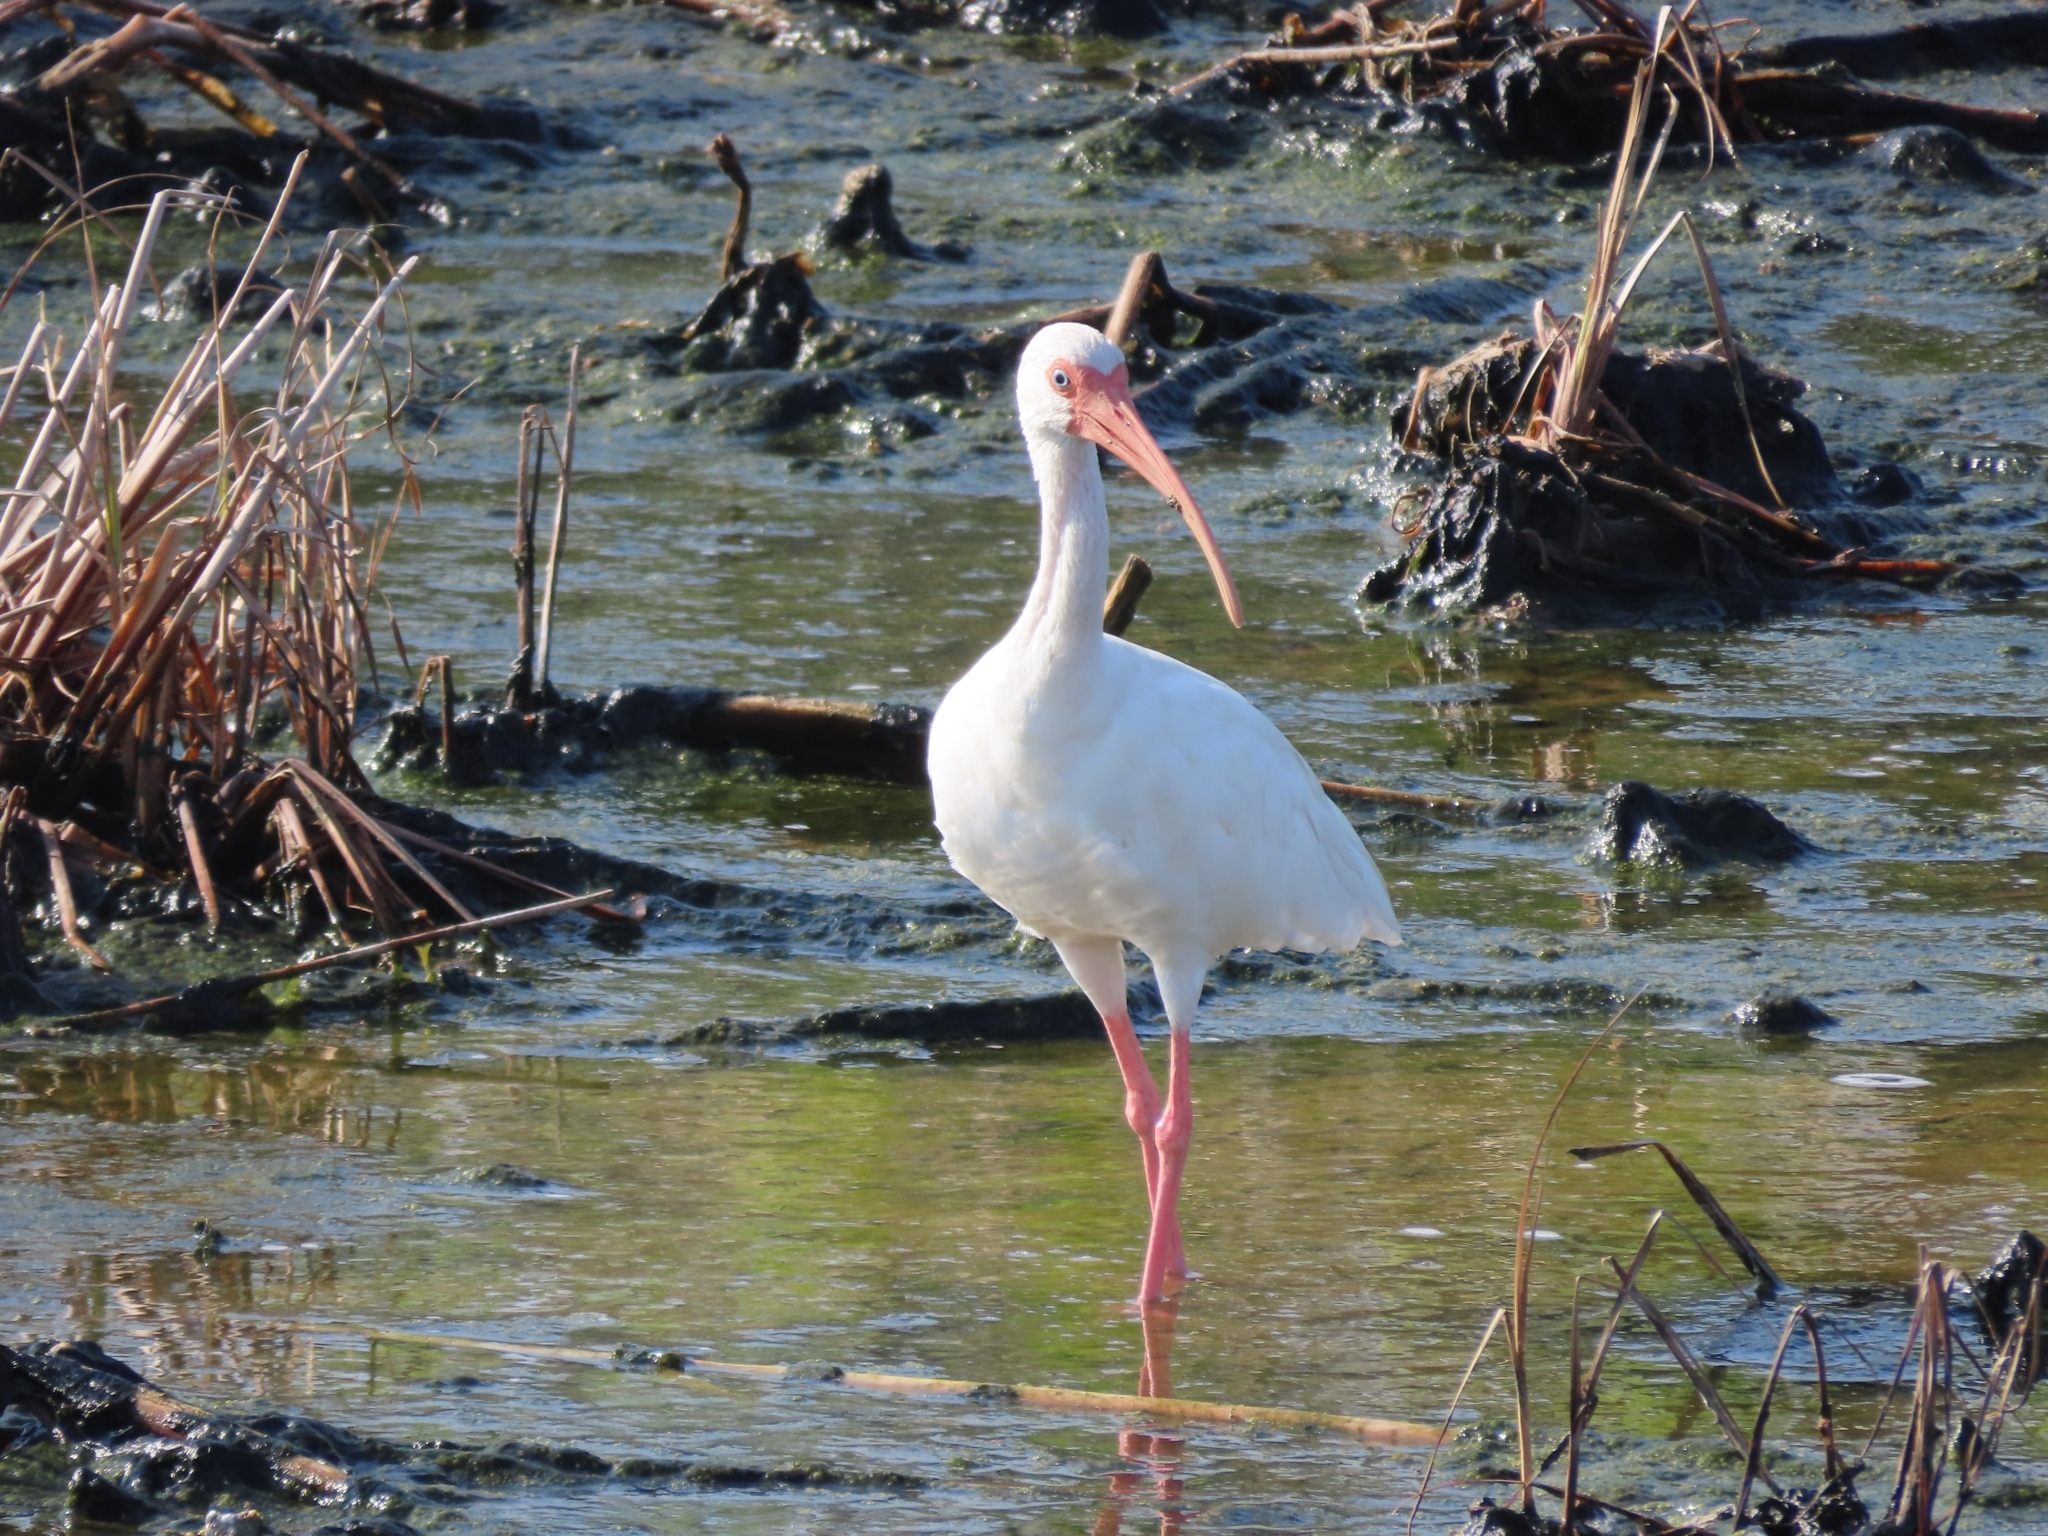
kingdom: Animalia
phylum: Chordata
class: Aves
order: Pelecaniformes
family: Threskiornithidae
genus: Eudocimus
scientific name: Eudocimus albus
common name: White ibis
